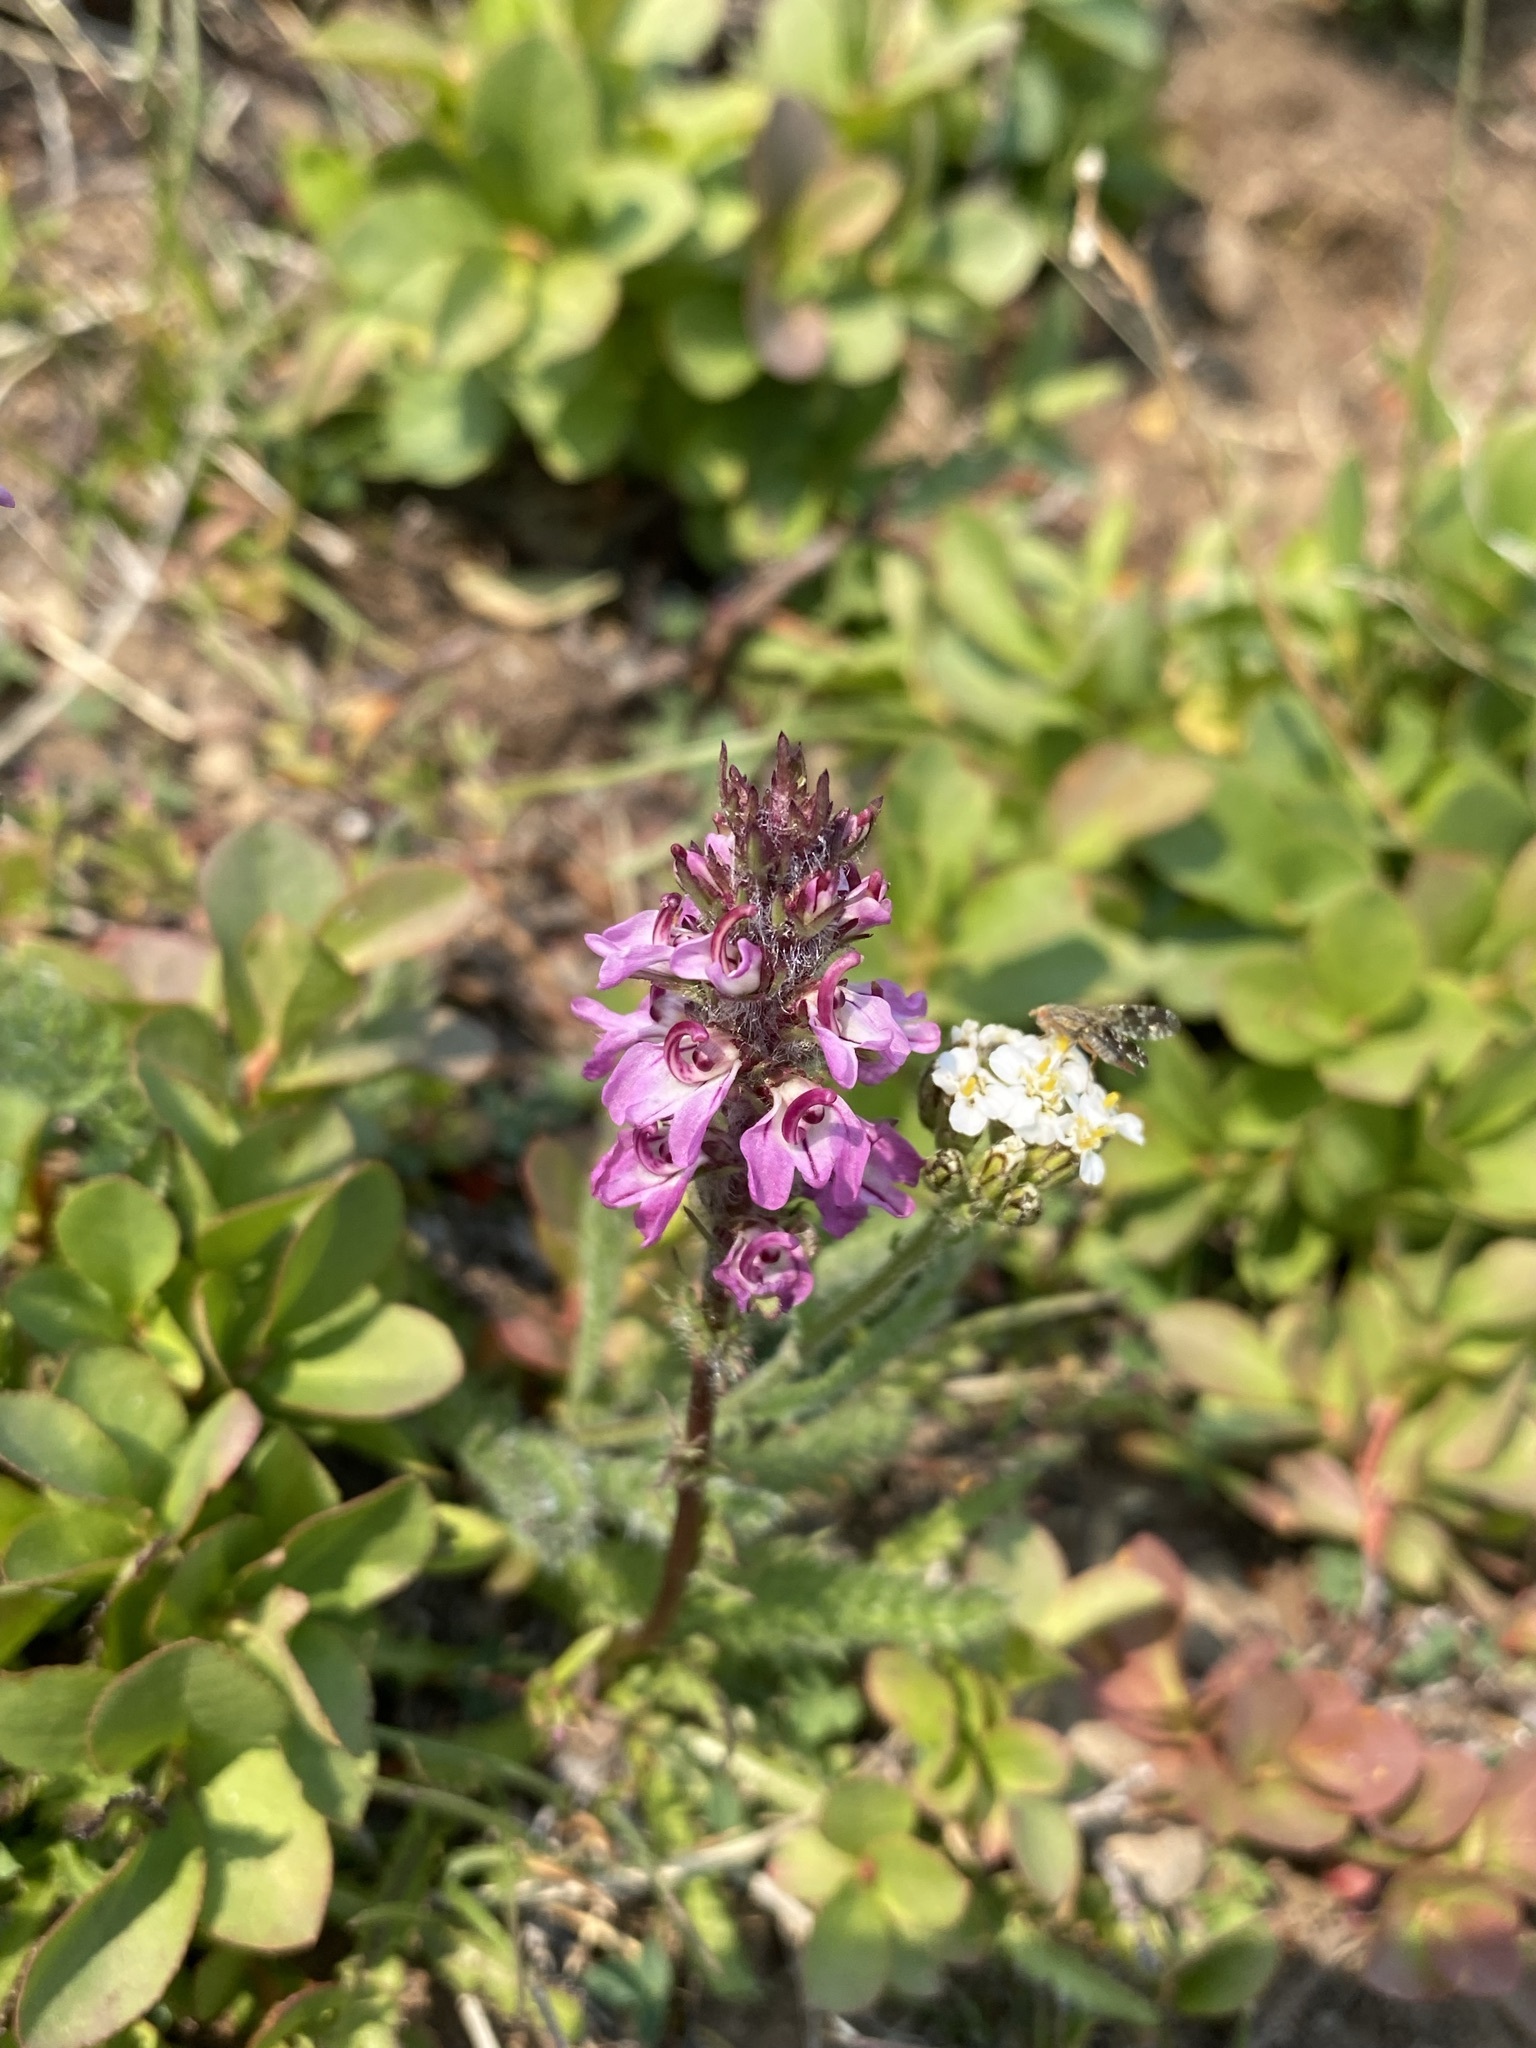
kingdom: Plantae
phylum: Tracheophyta
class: Magnoliopsida
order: Lamiales
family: Orobanchaceae
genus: Pedicularis
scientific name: Pedicularis attollens
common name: Slender pedicularis
